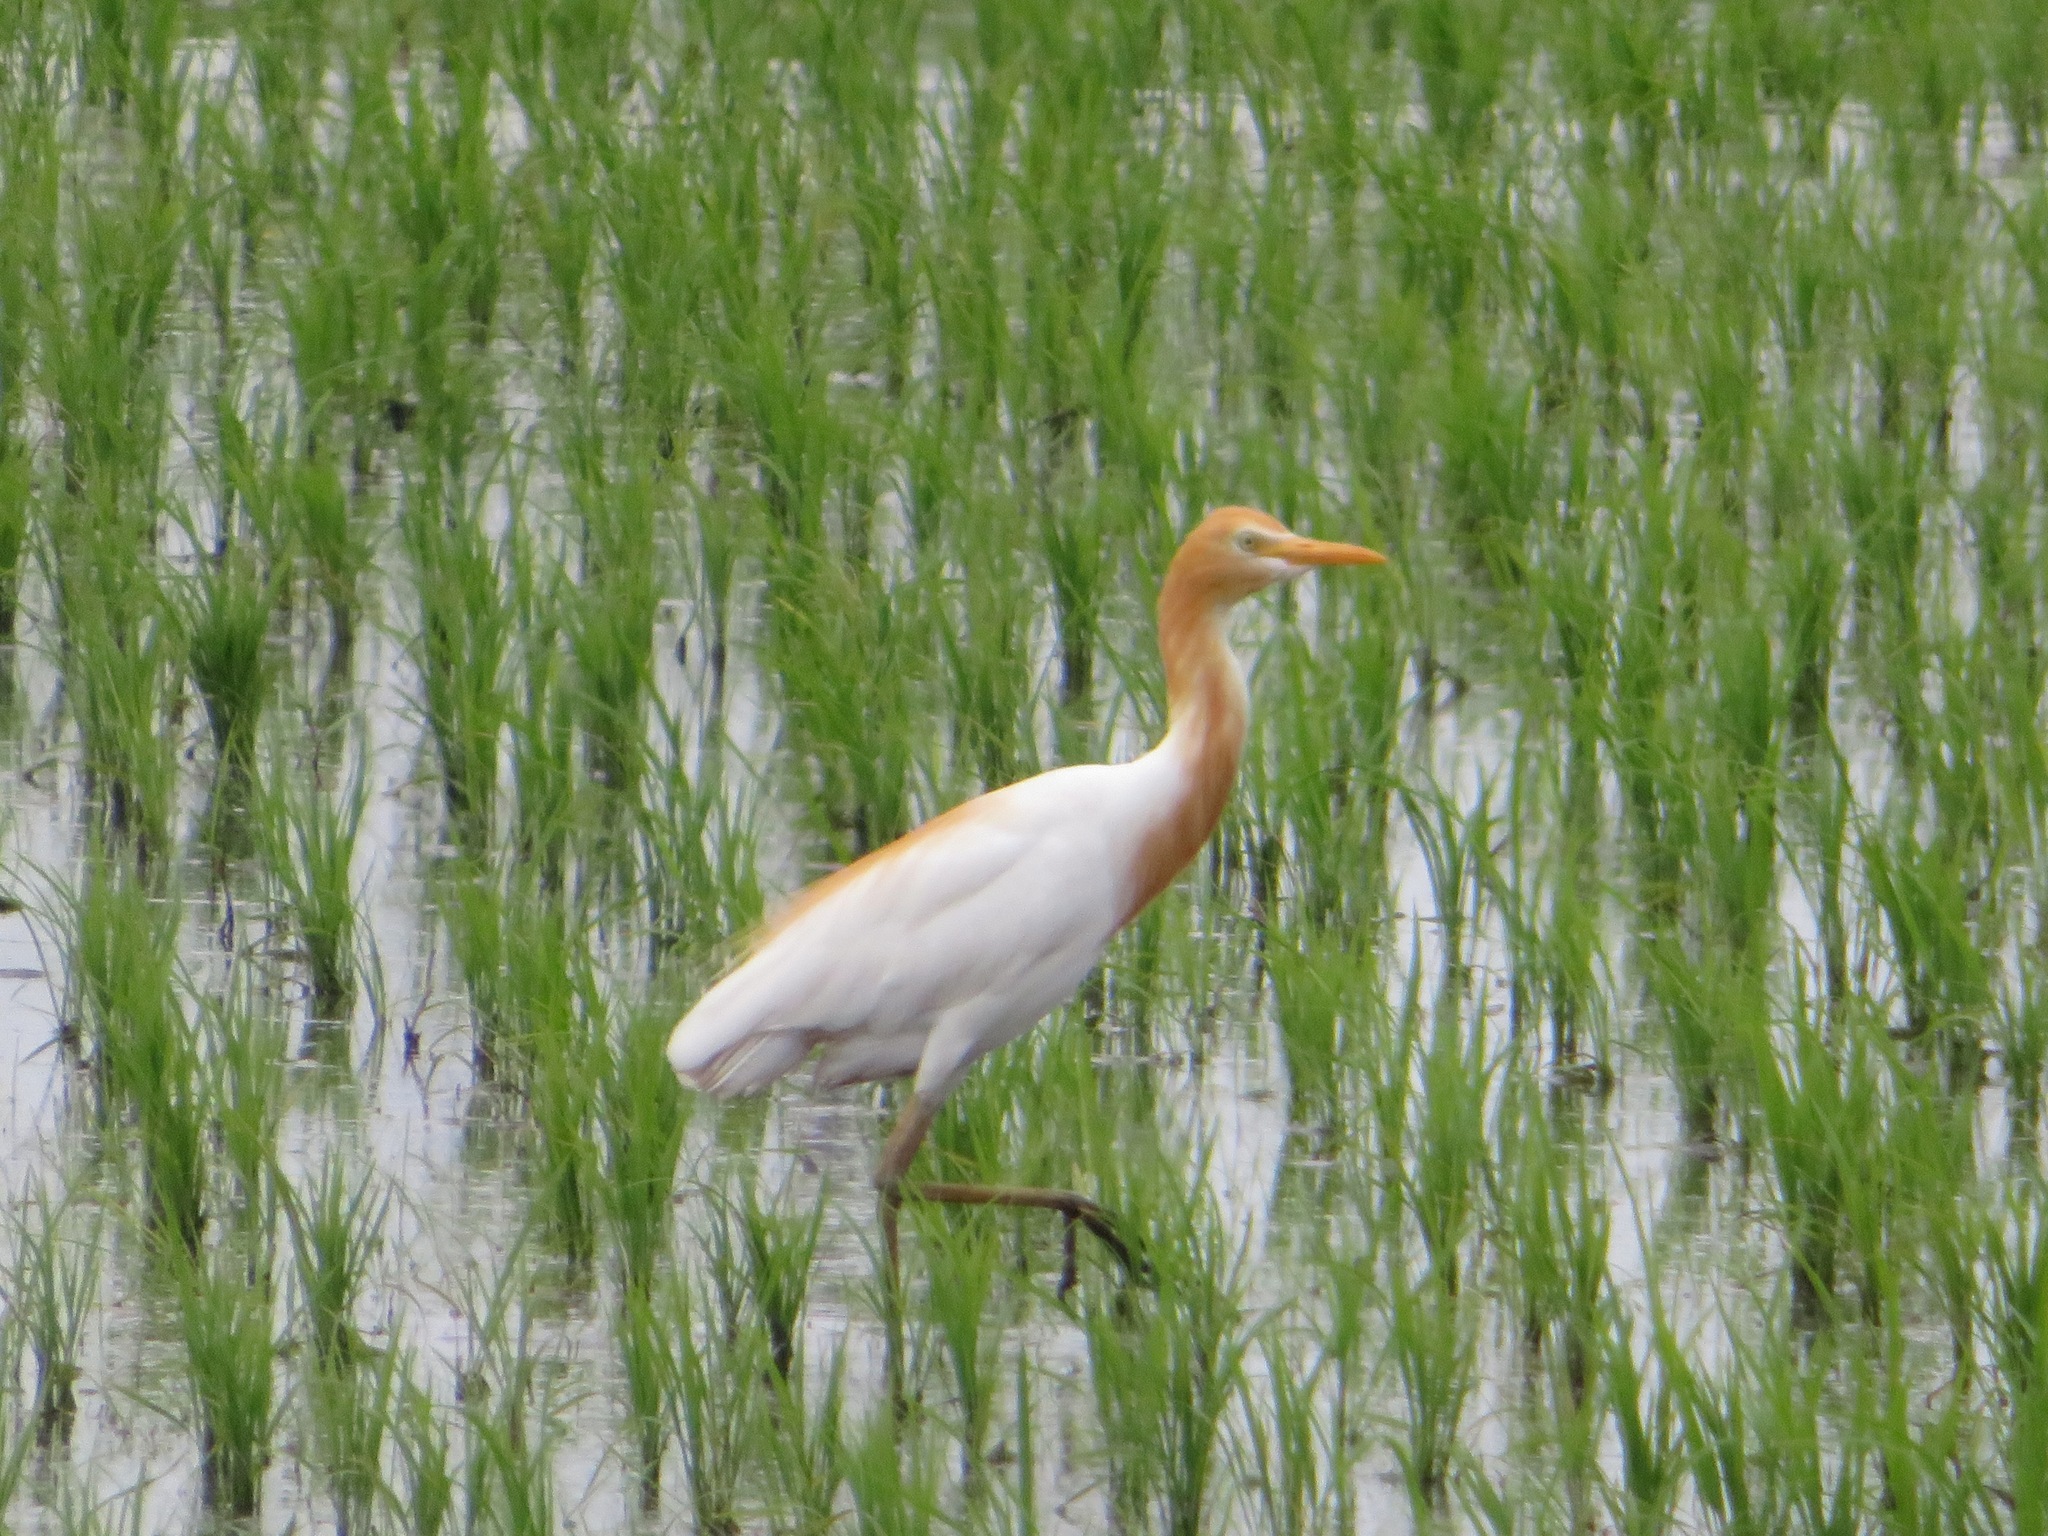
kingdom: Animalia
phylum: Chordata
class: Aves
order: Pelecaniformes
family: Ardeidae
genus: Bubulcus
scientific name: Bubulcus coromandus
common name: Eastern cattle egret
